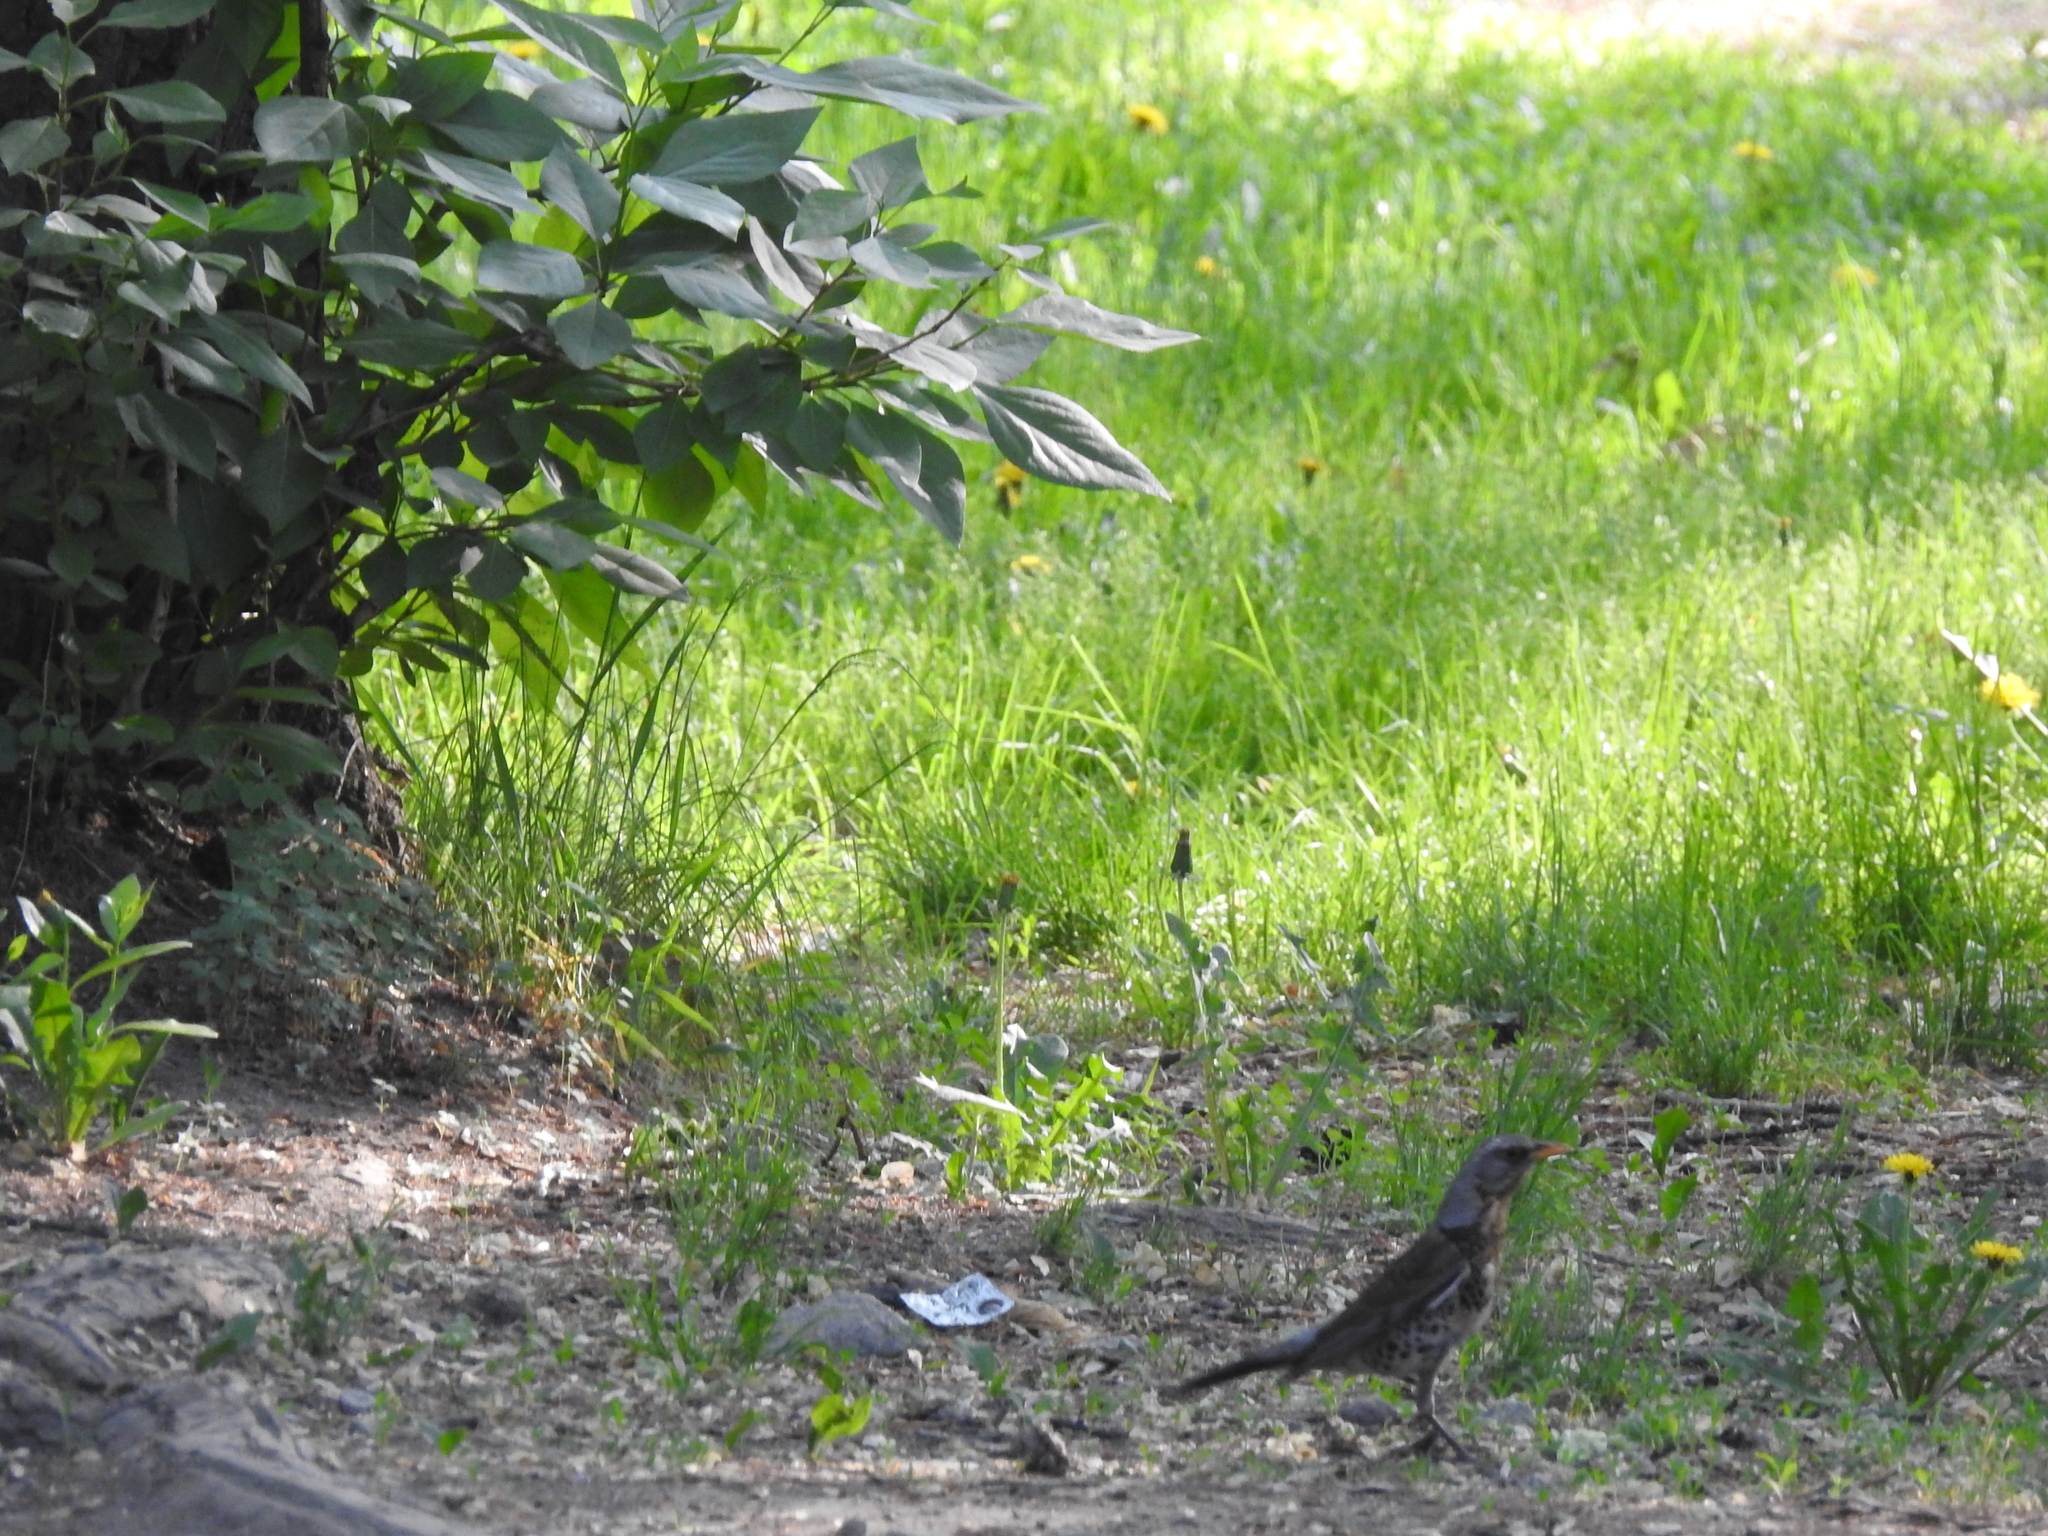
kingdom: Animalia
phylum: Chordata
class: Aves
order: Passeriformes
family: Turdidae
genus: Turdus
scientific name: Turdus pilaris
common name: Fieldfare
